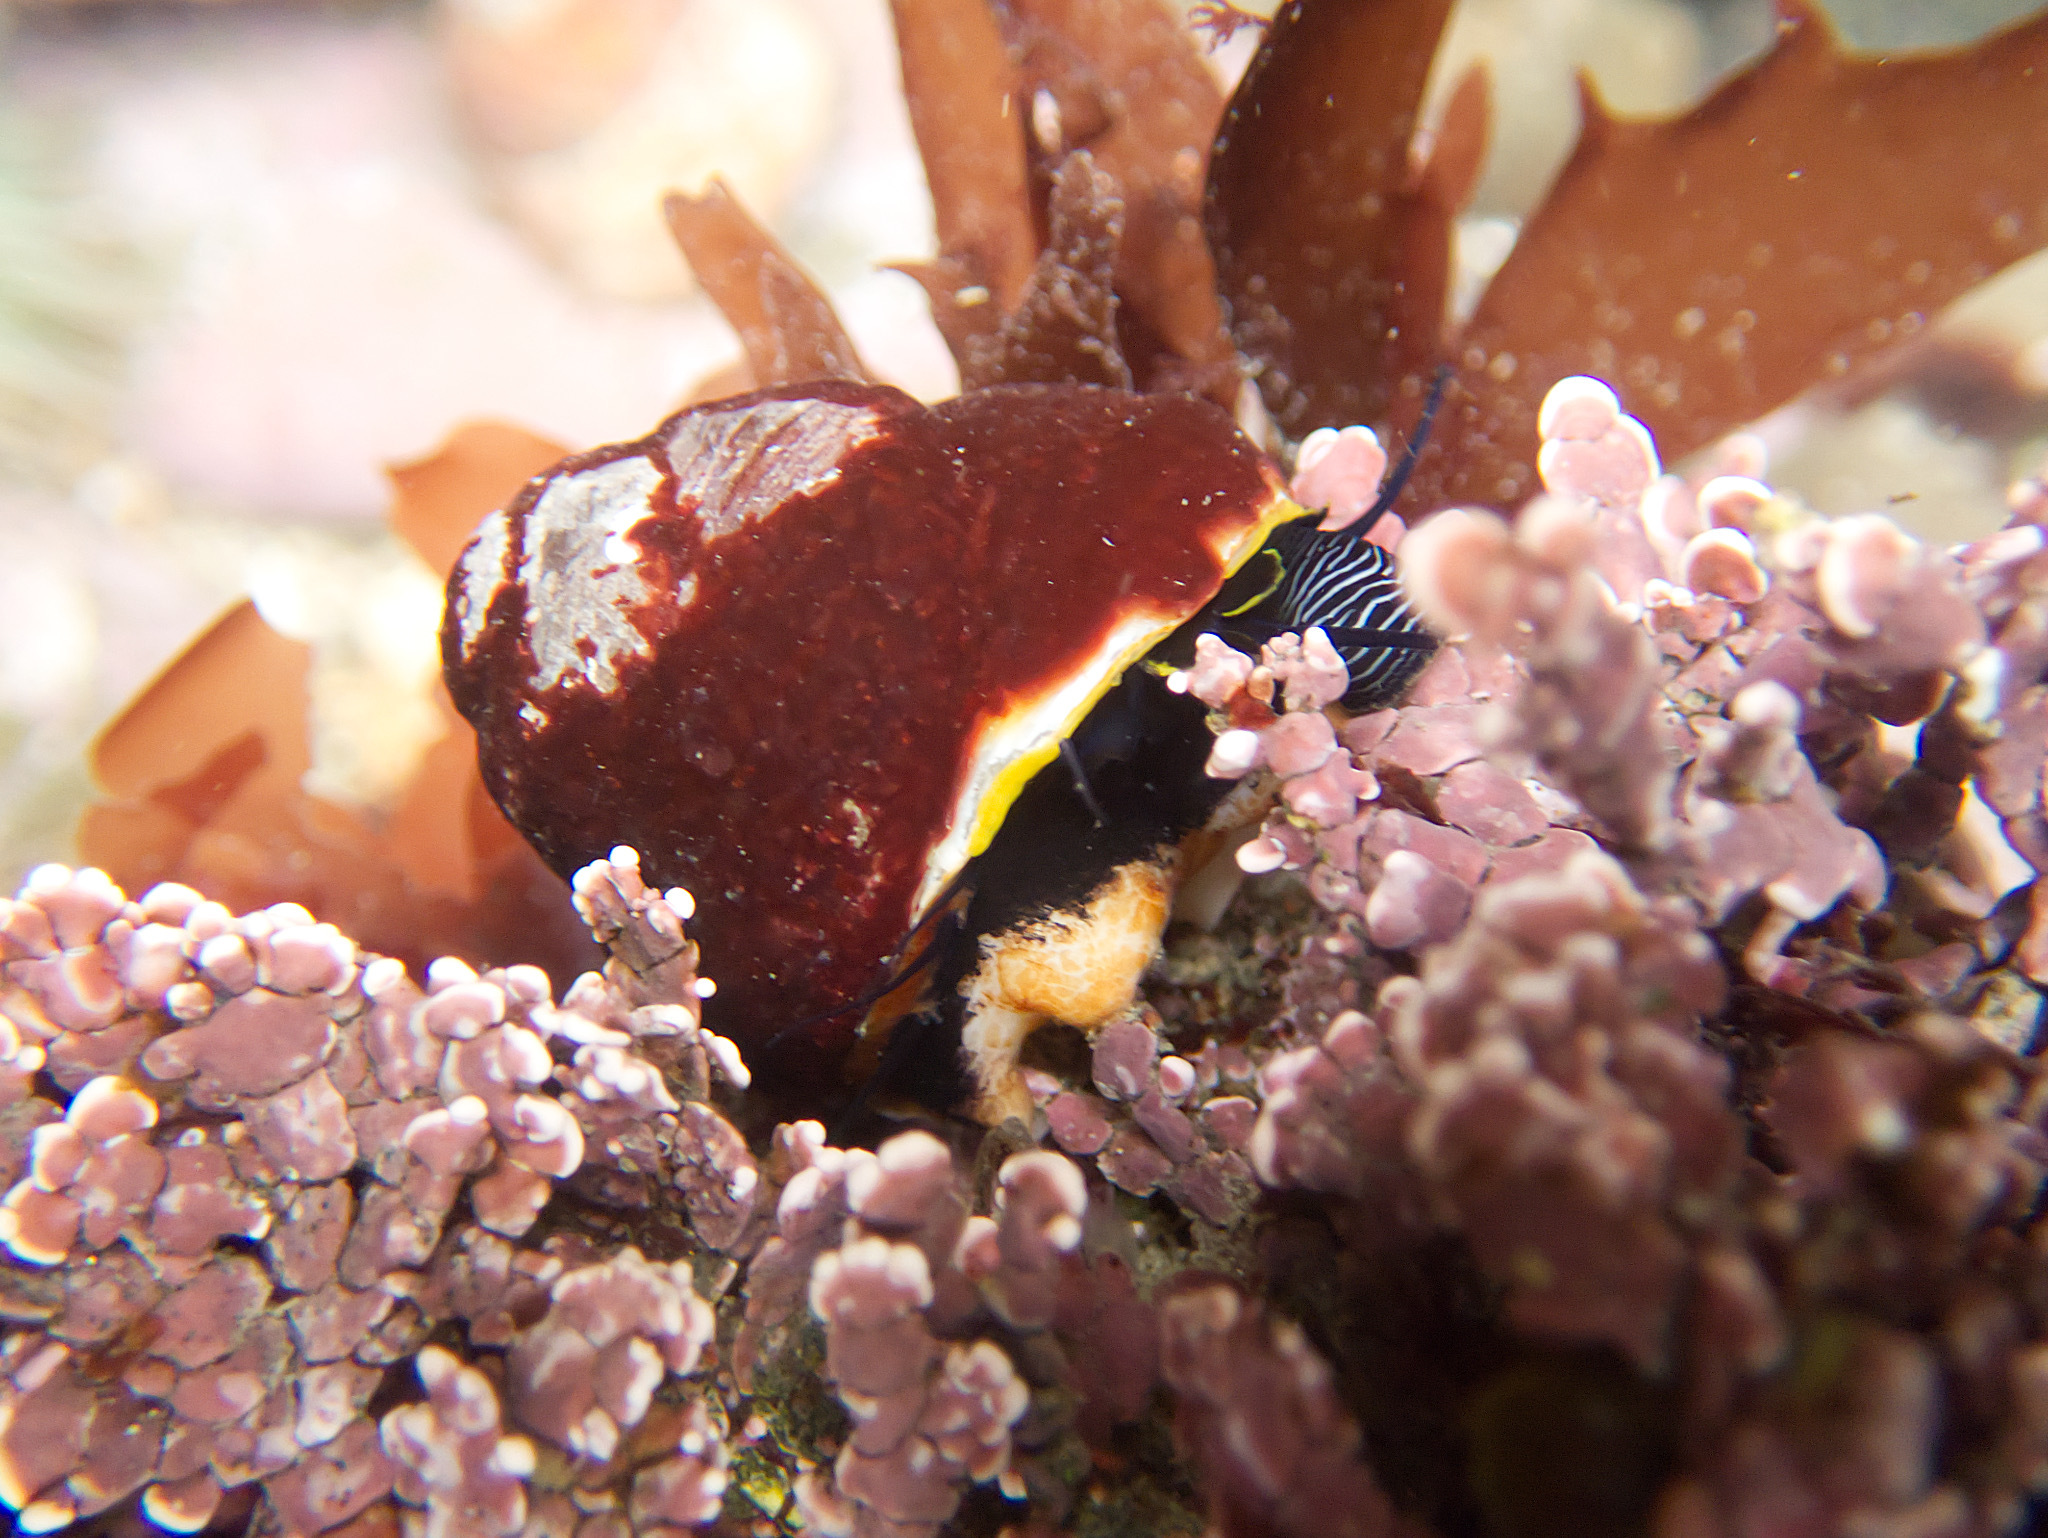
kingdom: Animalia
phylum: Mollusca
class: Gastropoda
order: Trochida
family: Tegulidae
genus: Tegula
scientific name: Tegula brunnea
